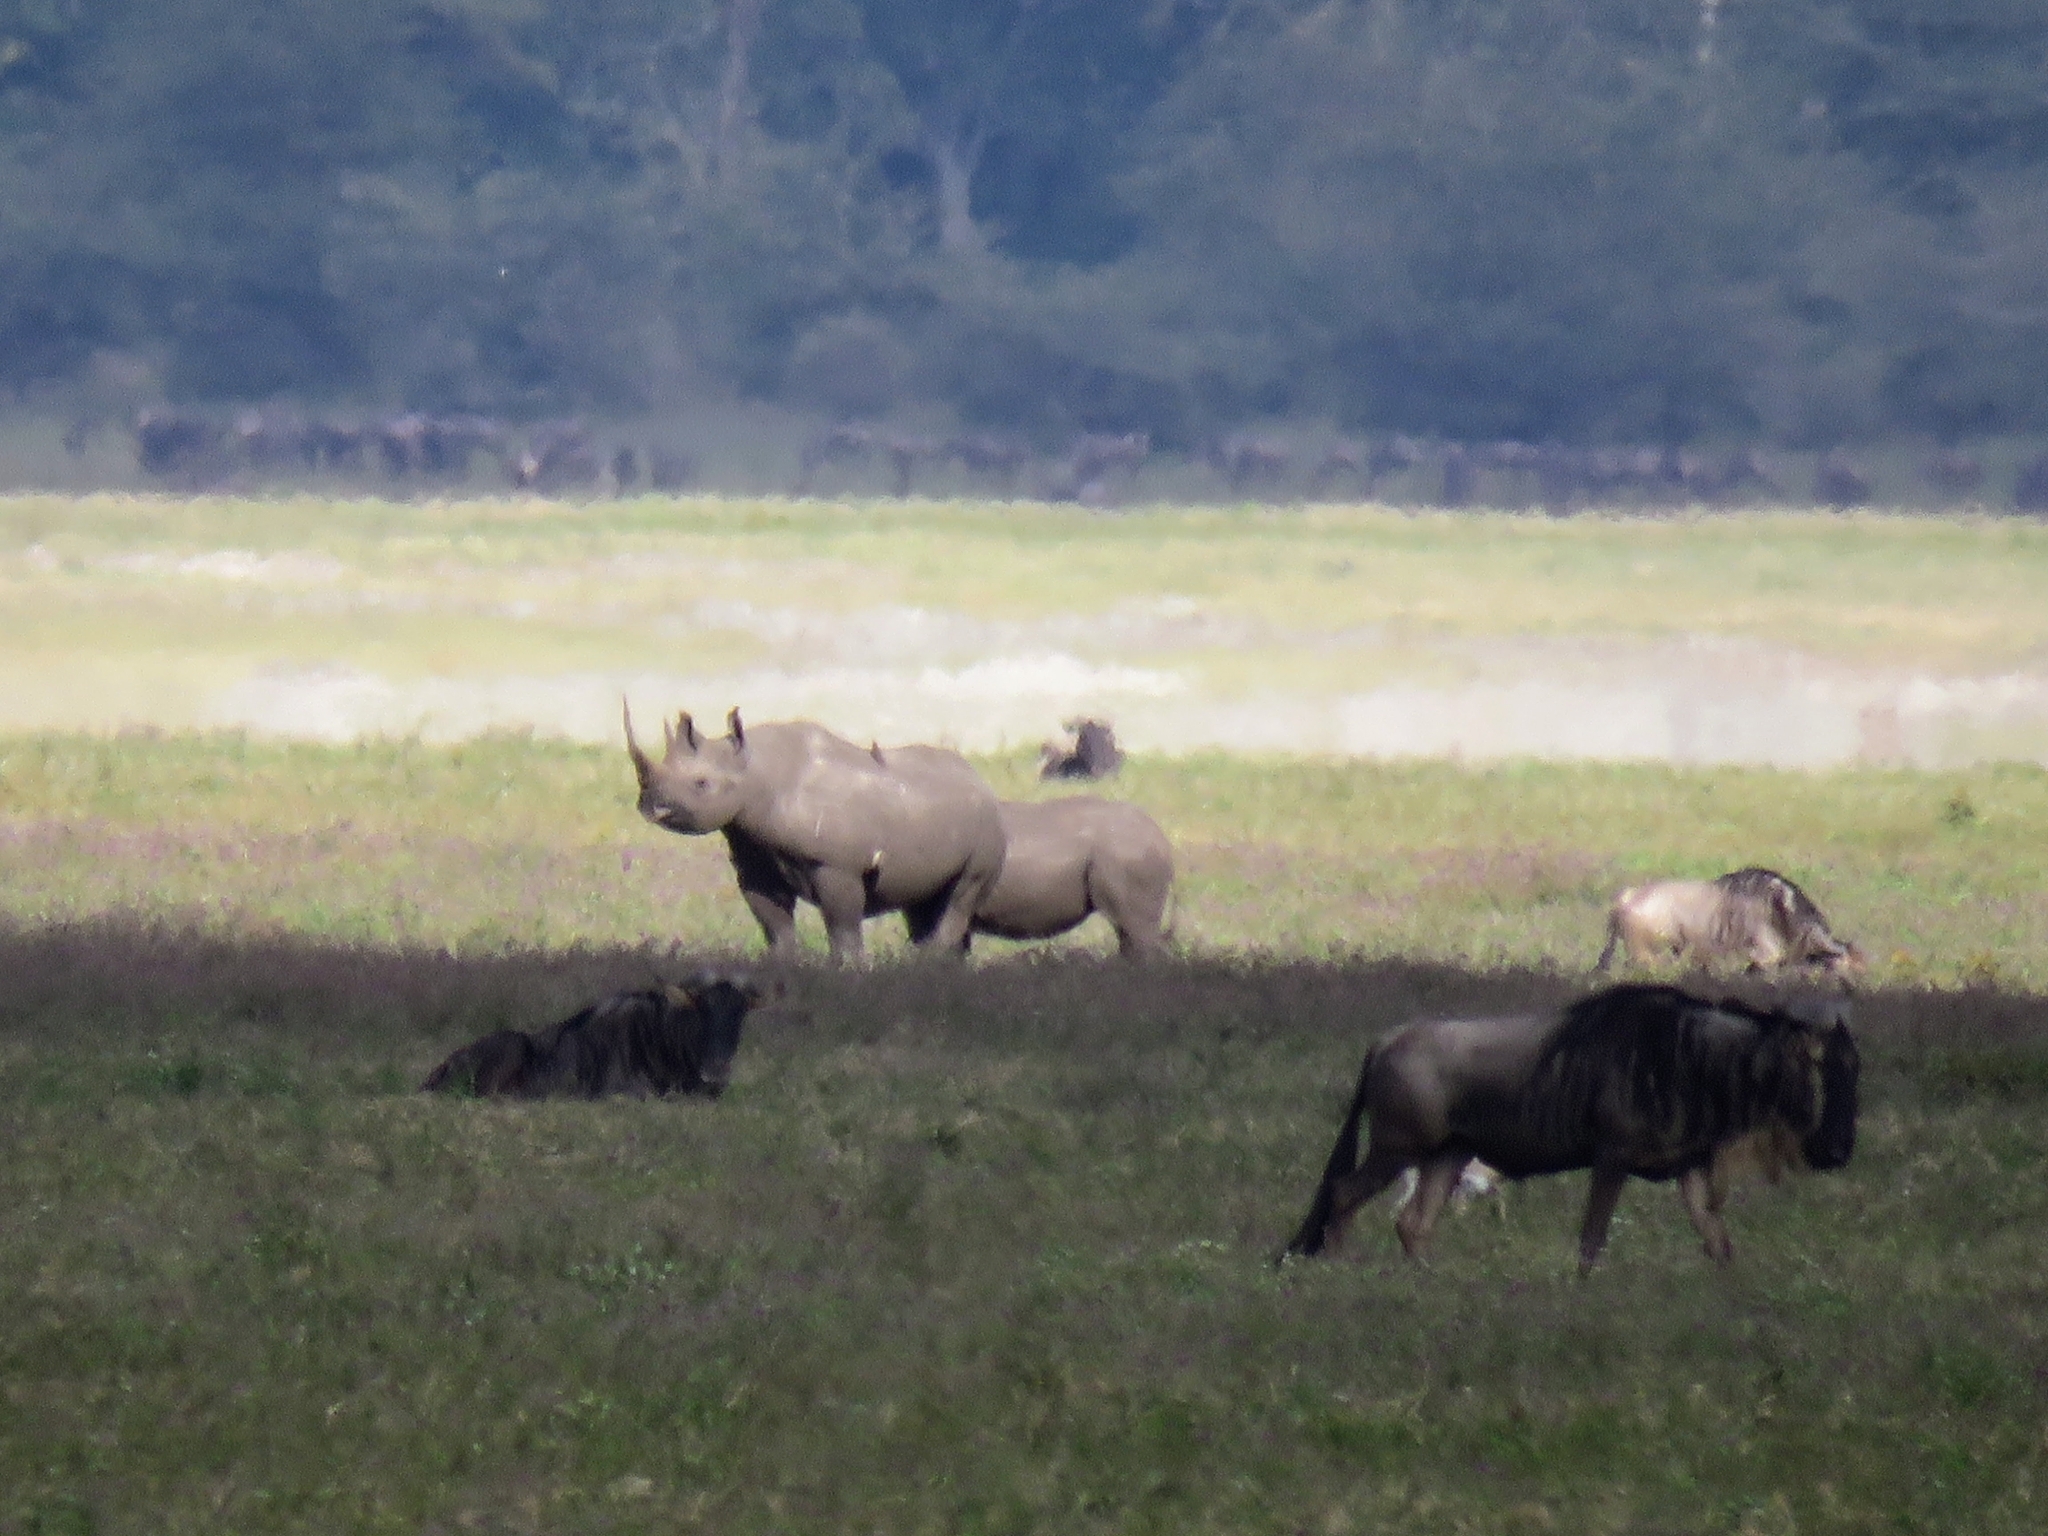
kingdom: Animalia
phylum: Chordata
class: Mammalia
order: Perissodactyla
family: Rhinocerotidae
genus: Diceros
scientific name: Diceros bicornis
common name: Black rhinoceros
